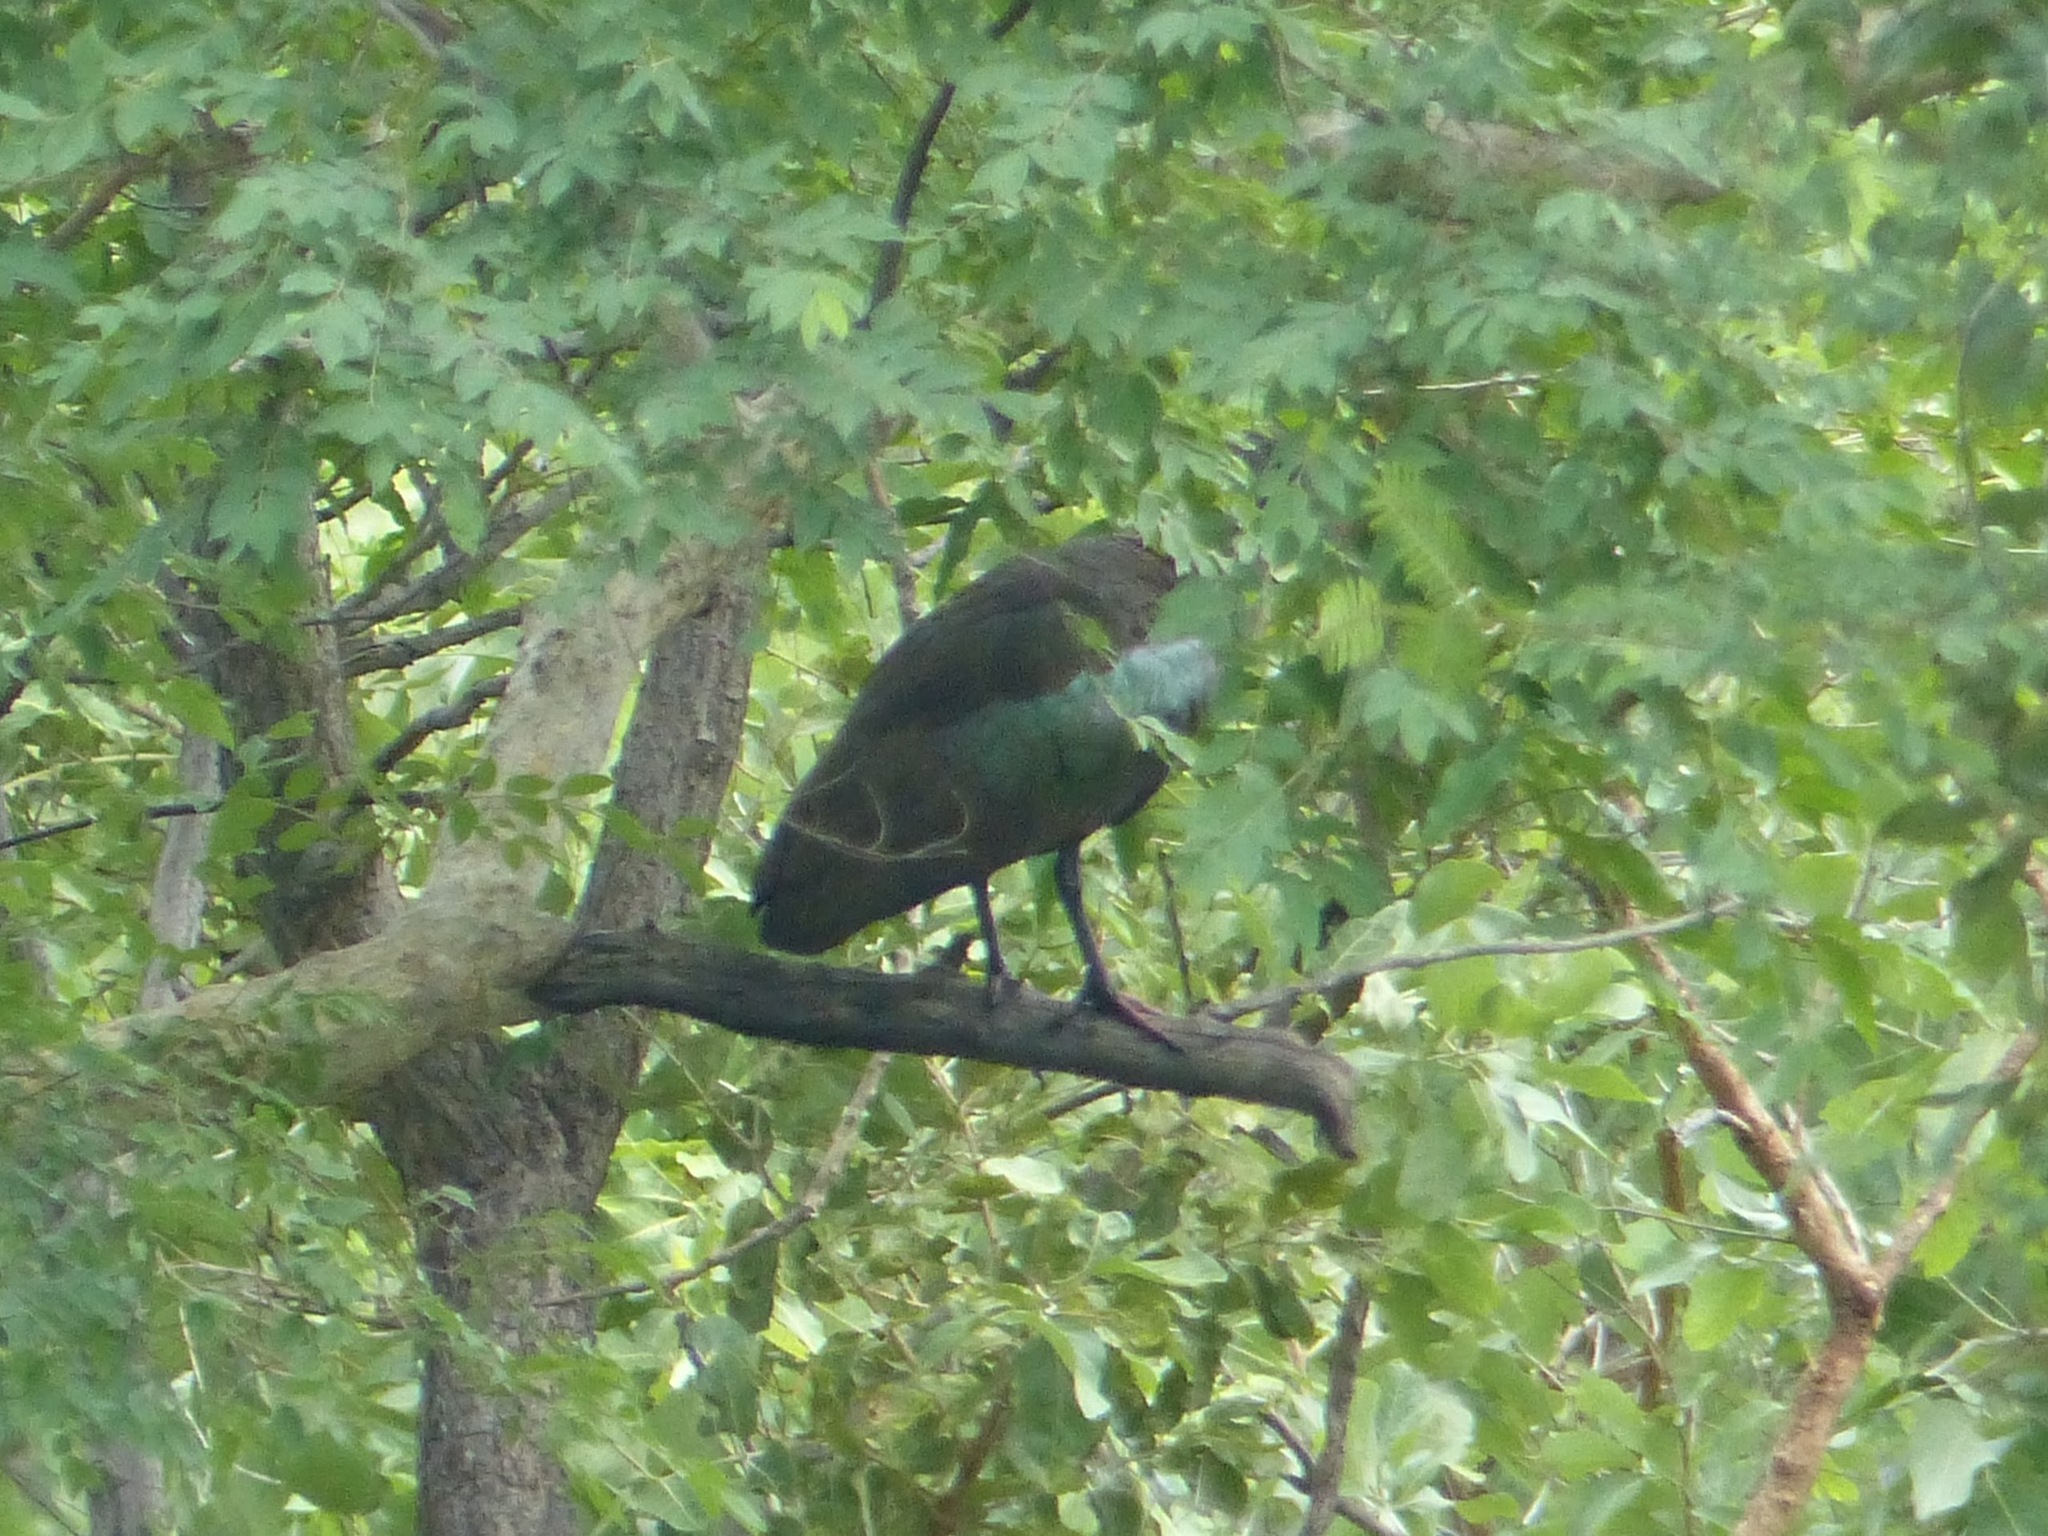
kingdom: Animalia
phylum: Chordata
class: Aves
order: Pelecaniformes
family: Threskiornithidae
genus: Bostrychia
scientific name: Bostrychia hagedash
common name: Hadada ibis
